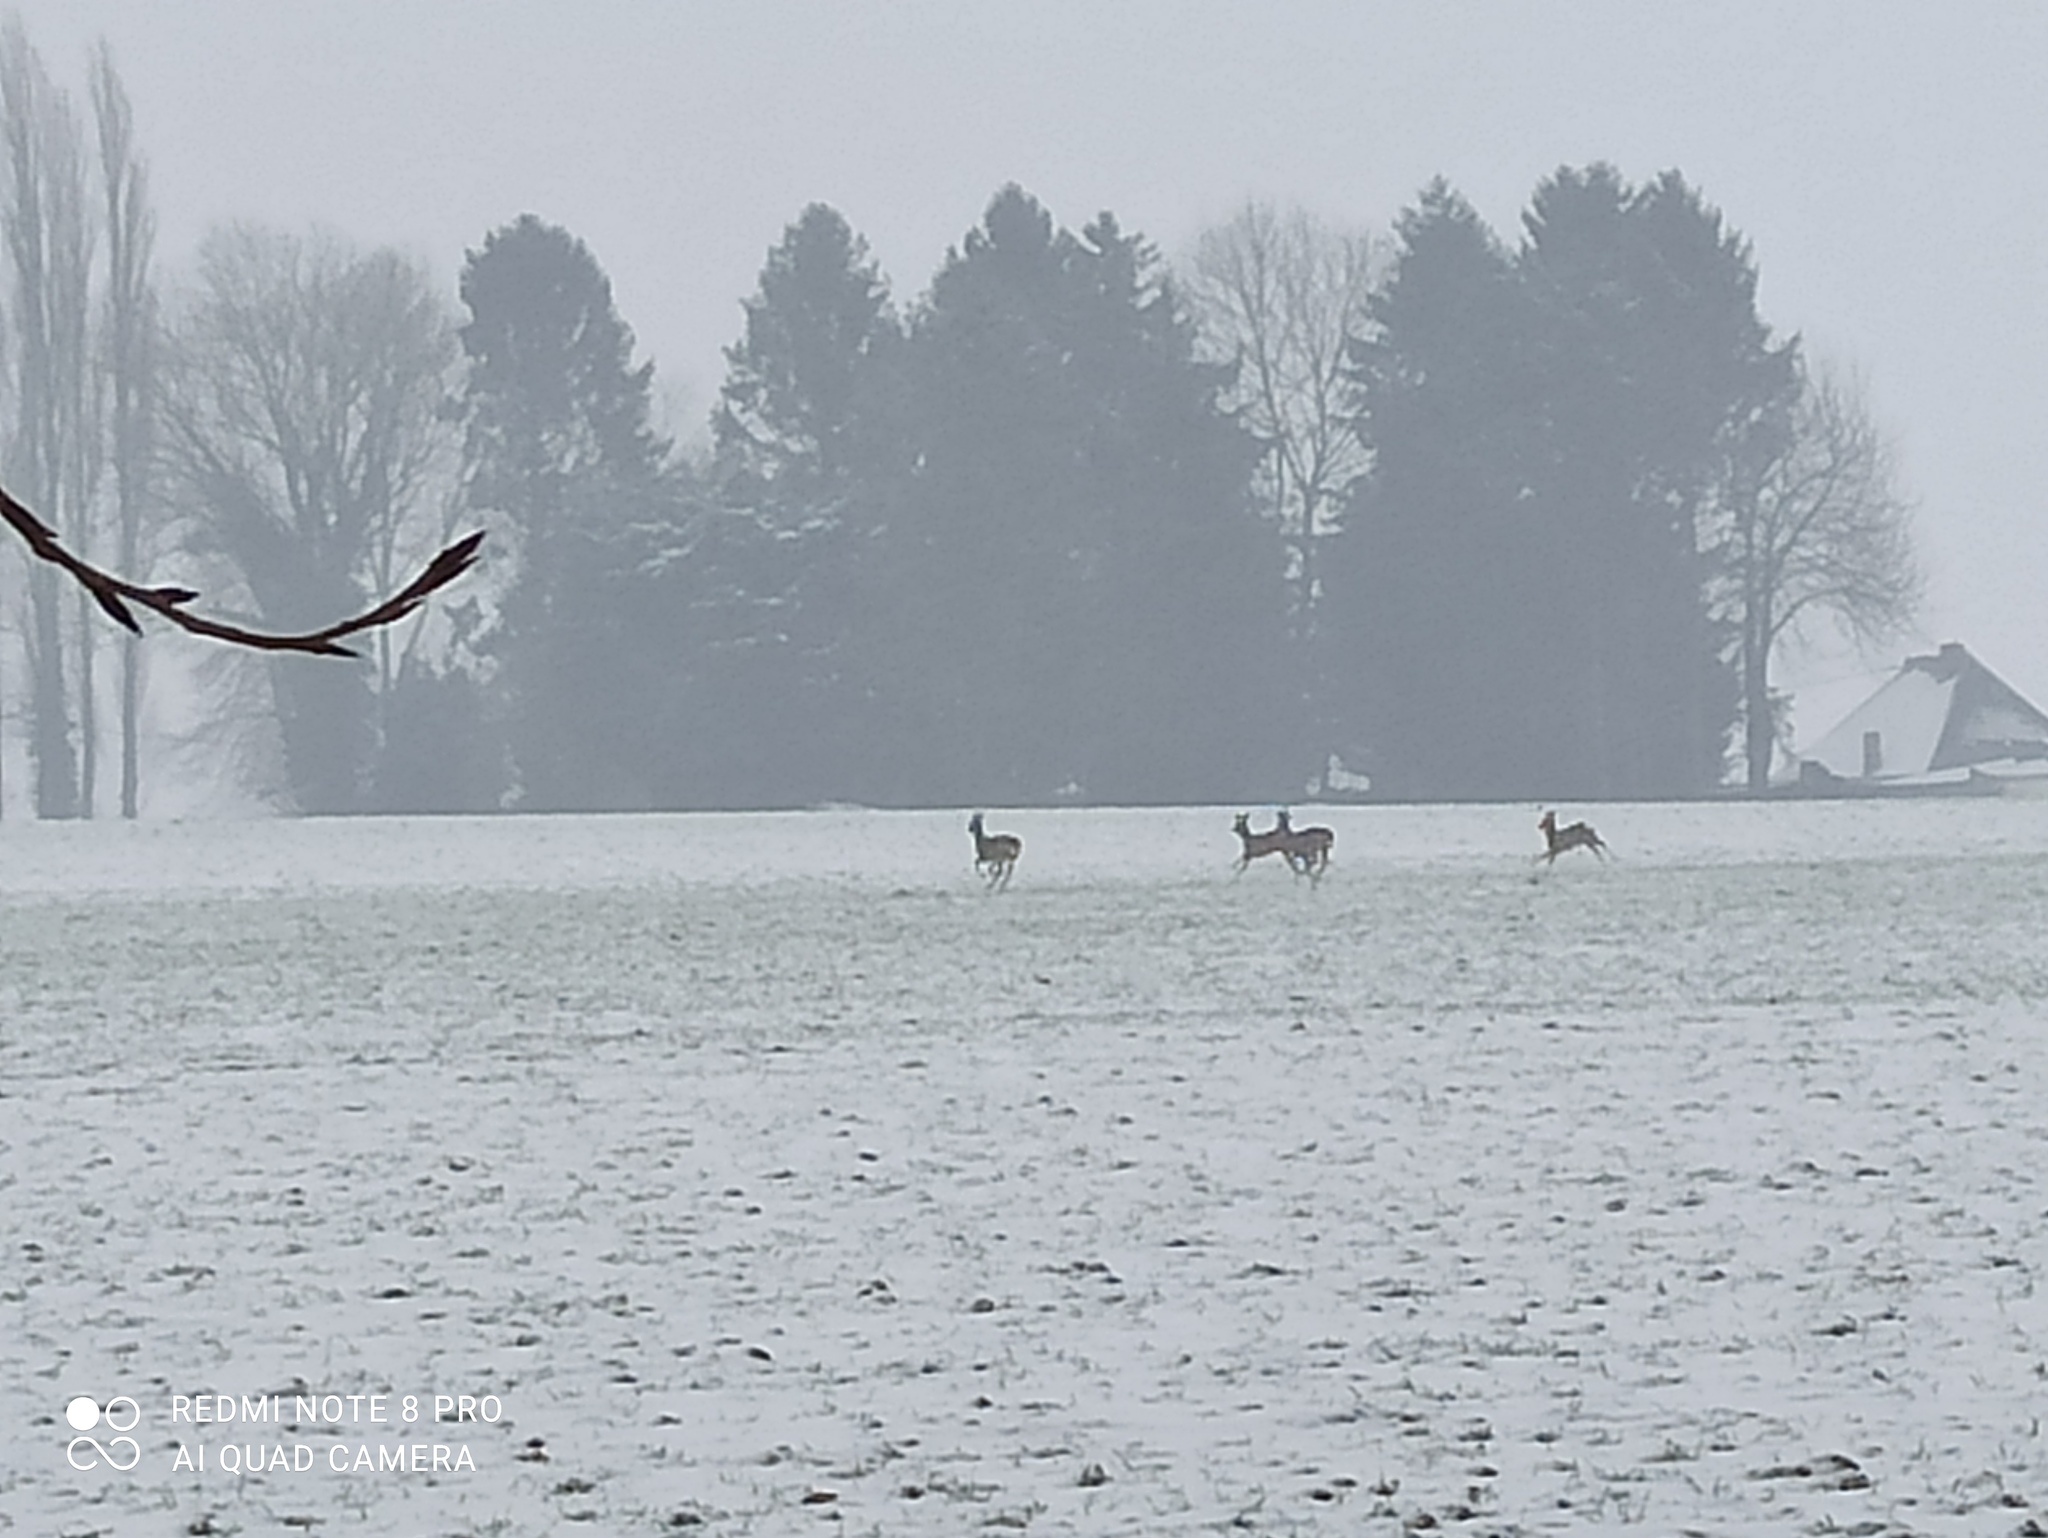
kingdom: Animalia
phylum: Chordata
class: Mammalia
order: Artiodactyla
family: Cervidae
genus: Capreolus
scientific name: Capreolus capreolus
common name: Western roe deer
